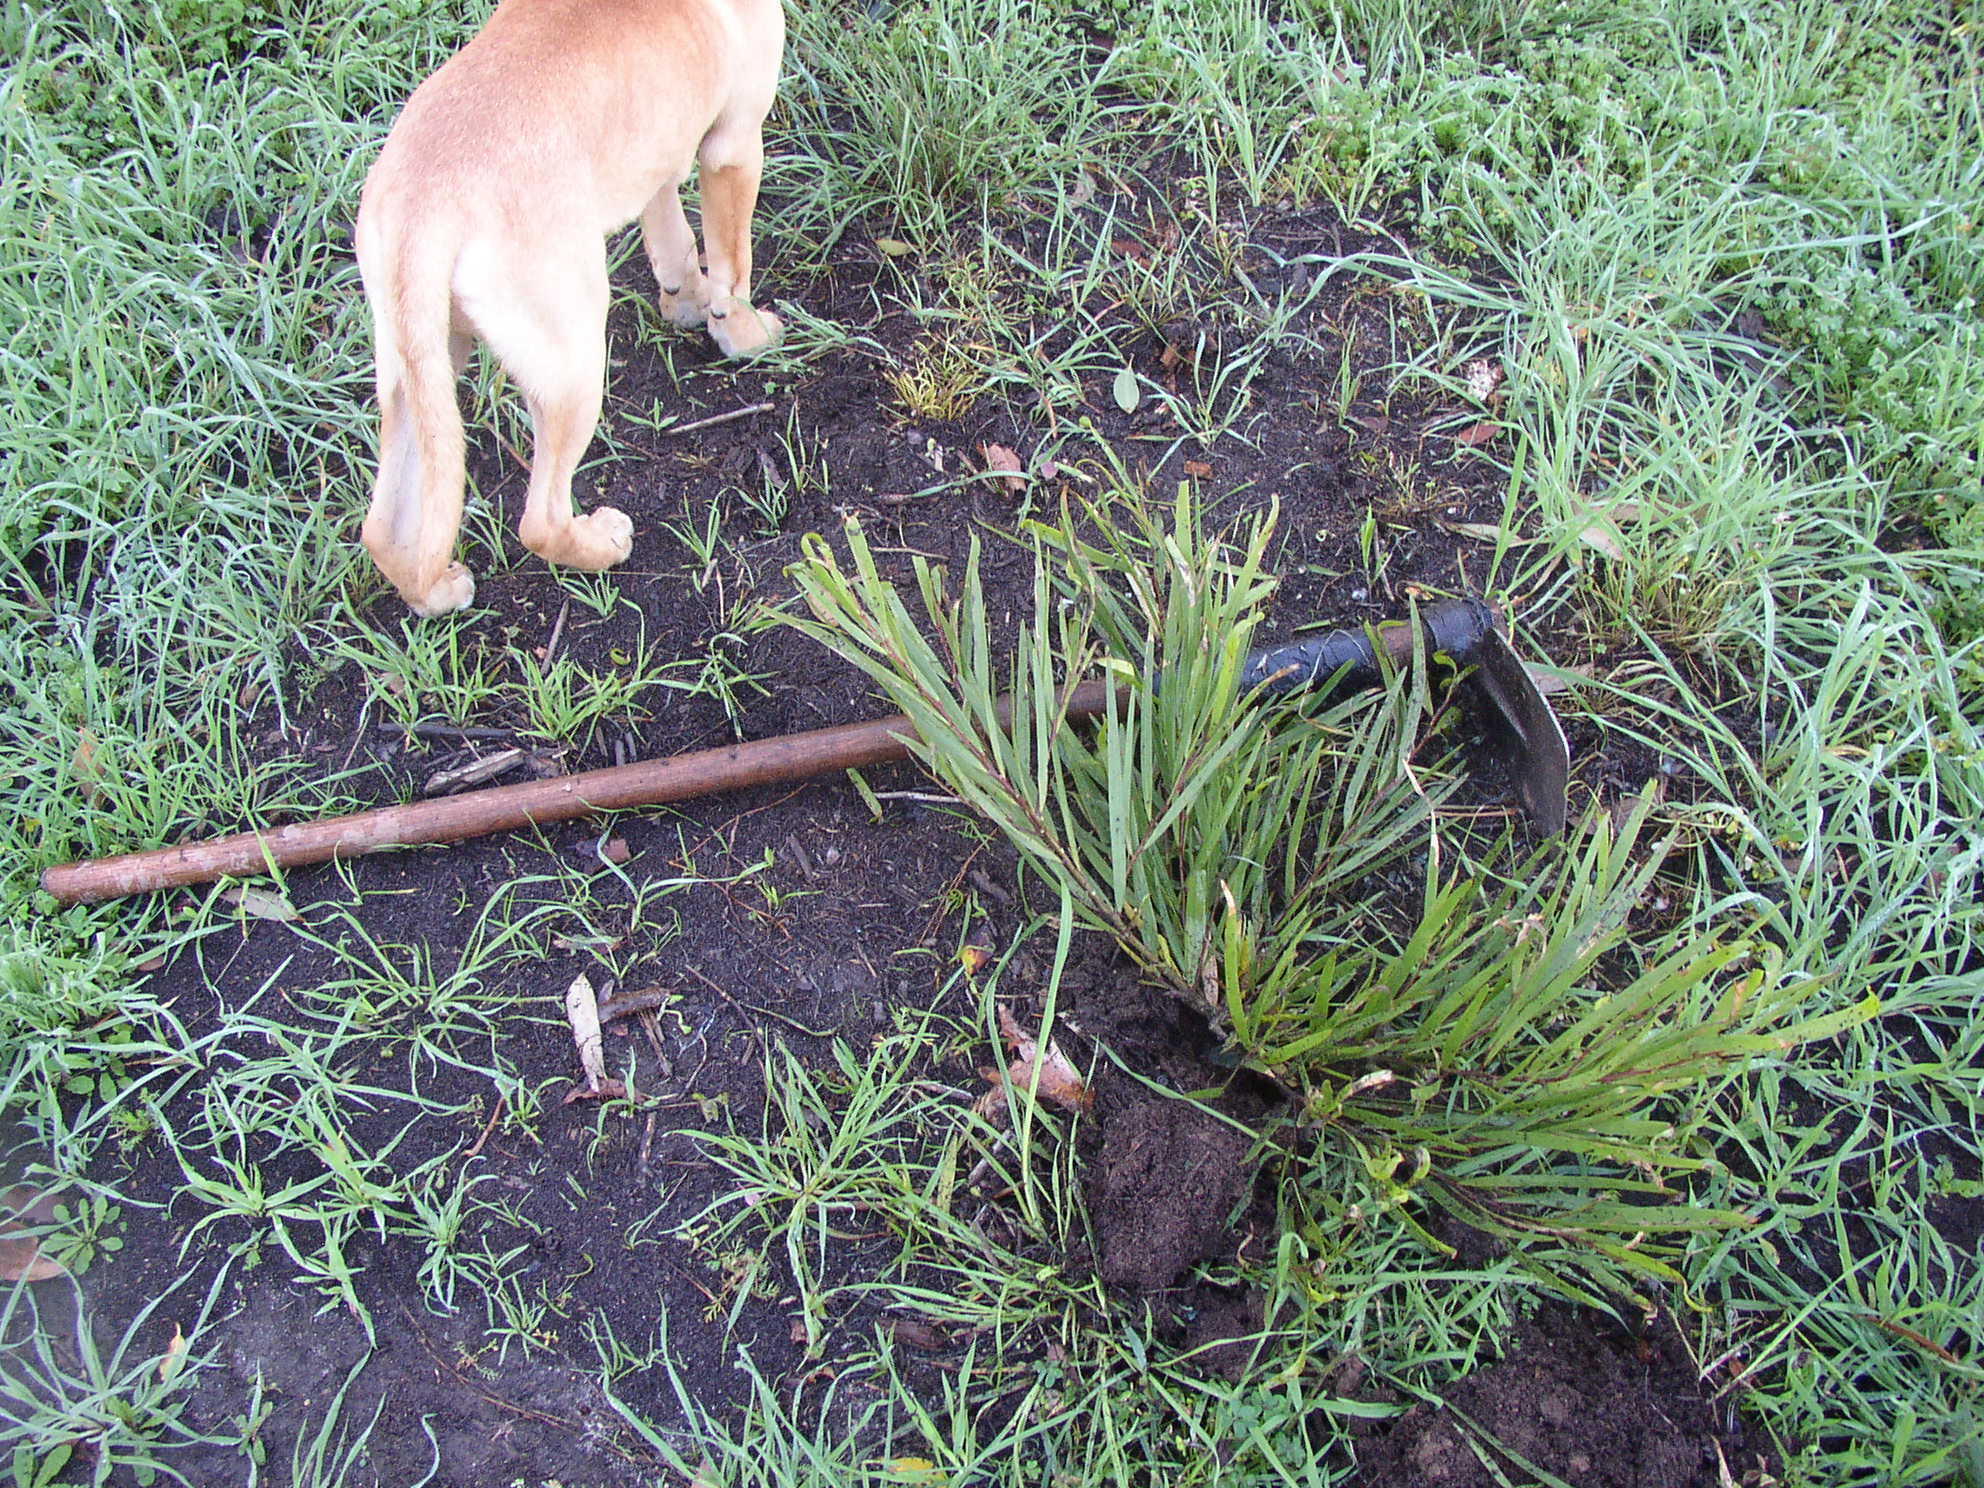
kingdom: Plantae
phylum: Tracheophyta
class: Magnoliopsida
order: Fabales
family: Fabaceae
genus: Acacia
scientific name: Acacia longifolia
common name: Sydney golden wattle
